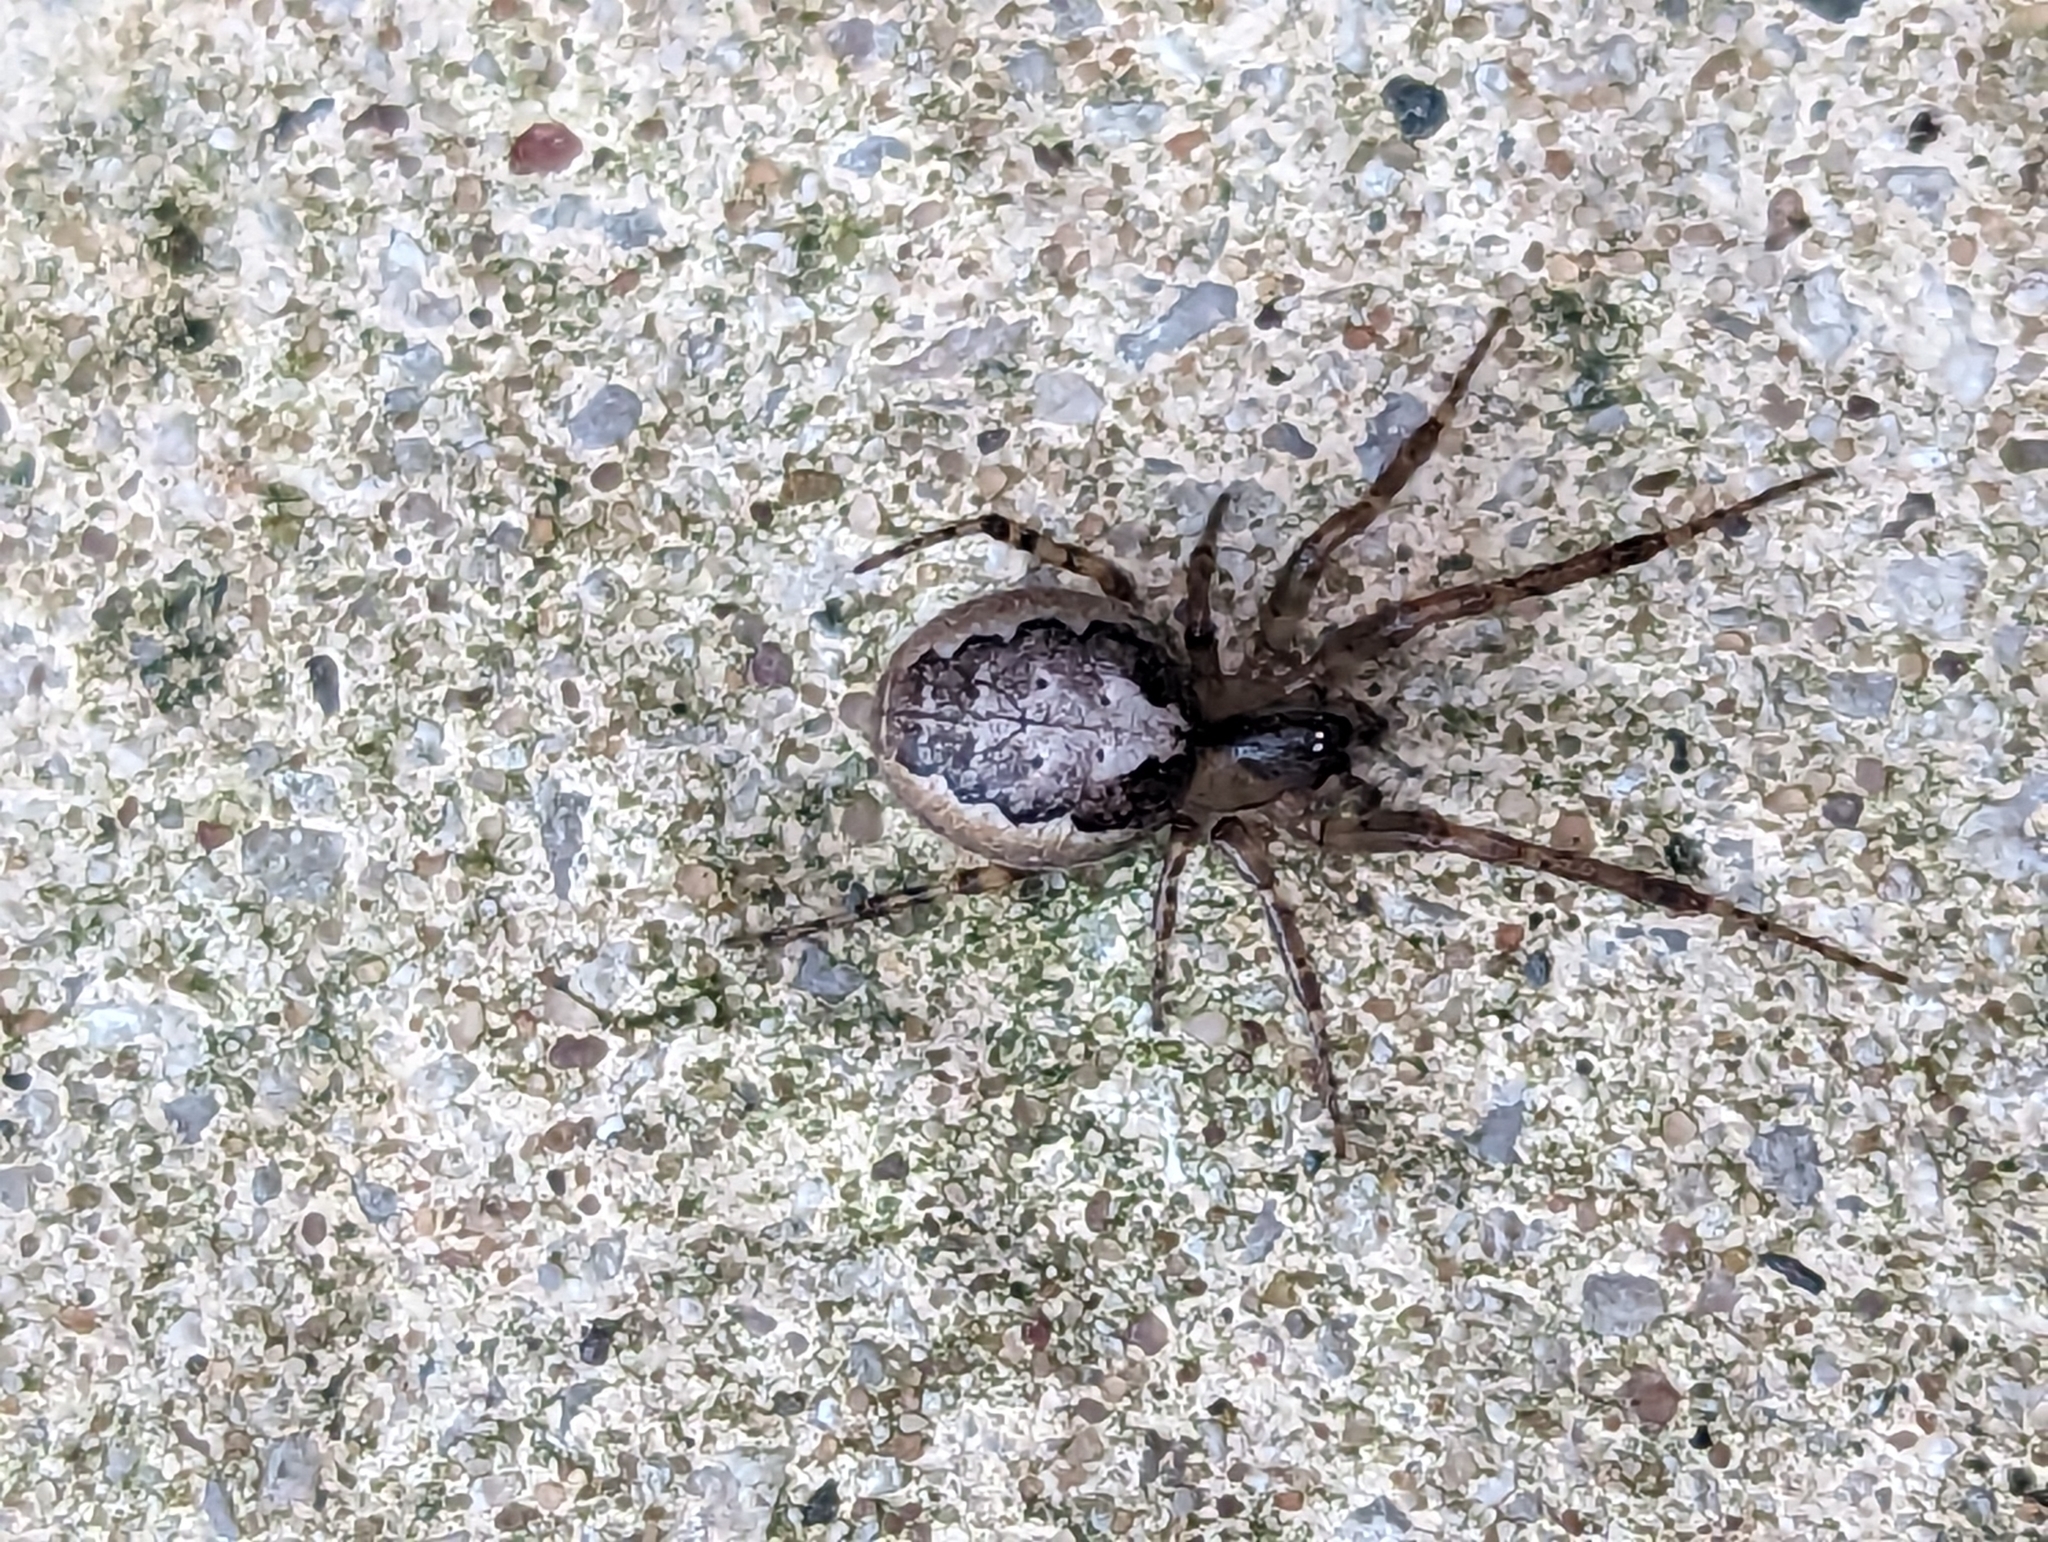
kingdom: Animalia
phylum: Arthropoda
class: Arachnida
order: Araneae
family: Araneidae
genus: Zygiella
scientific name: Zygiella x-notata
